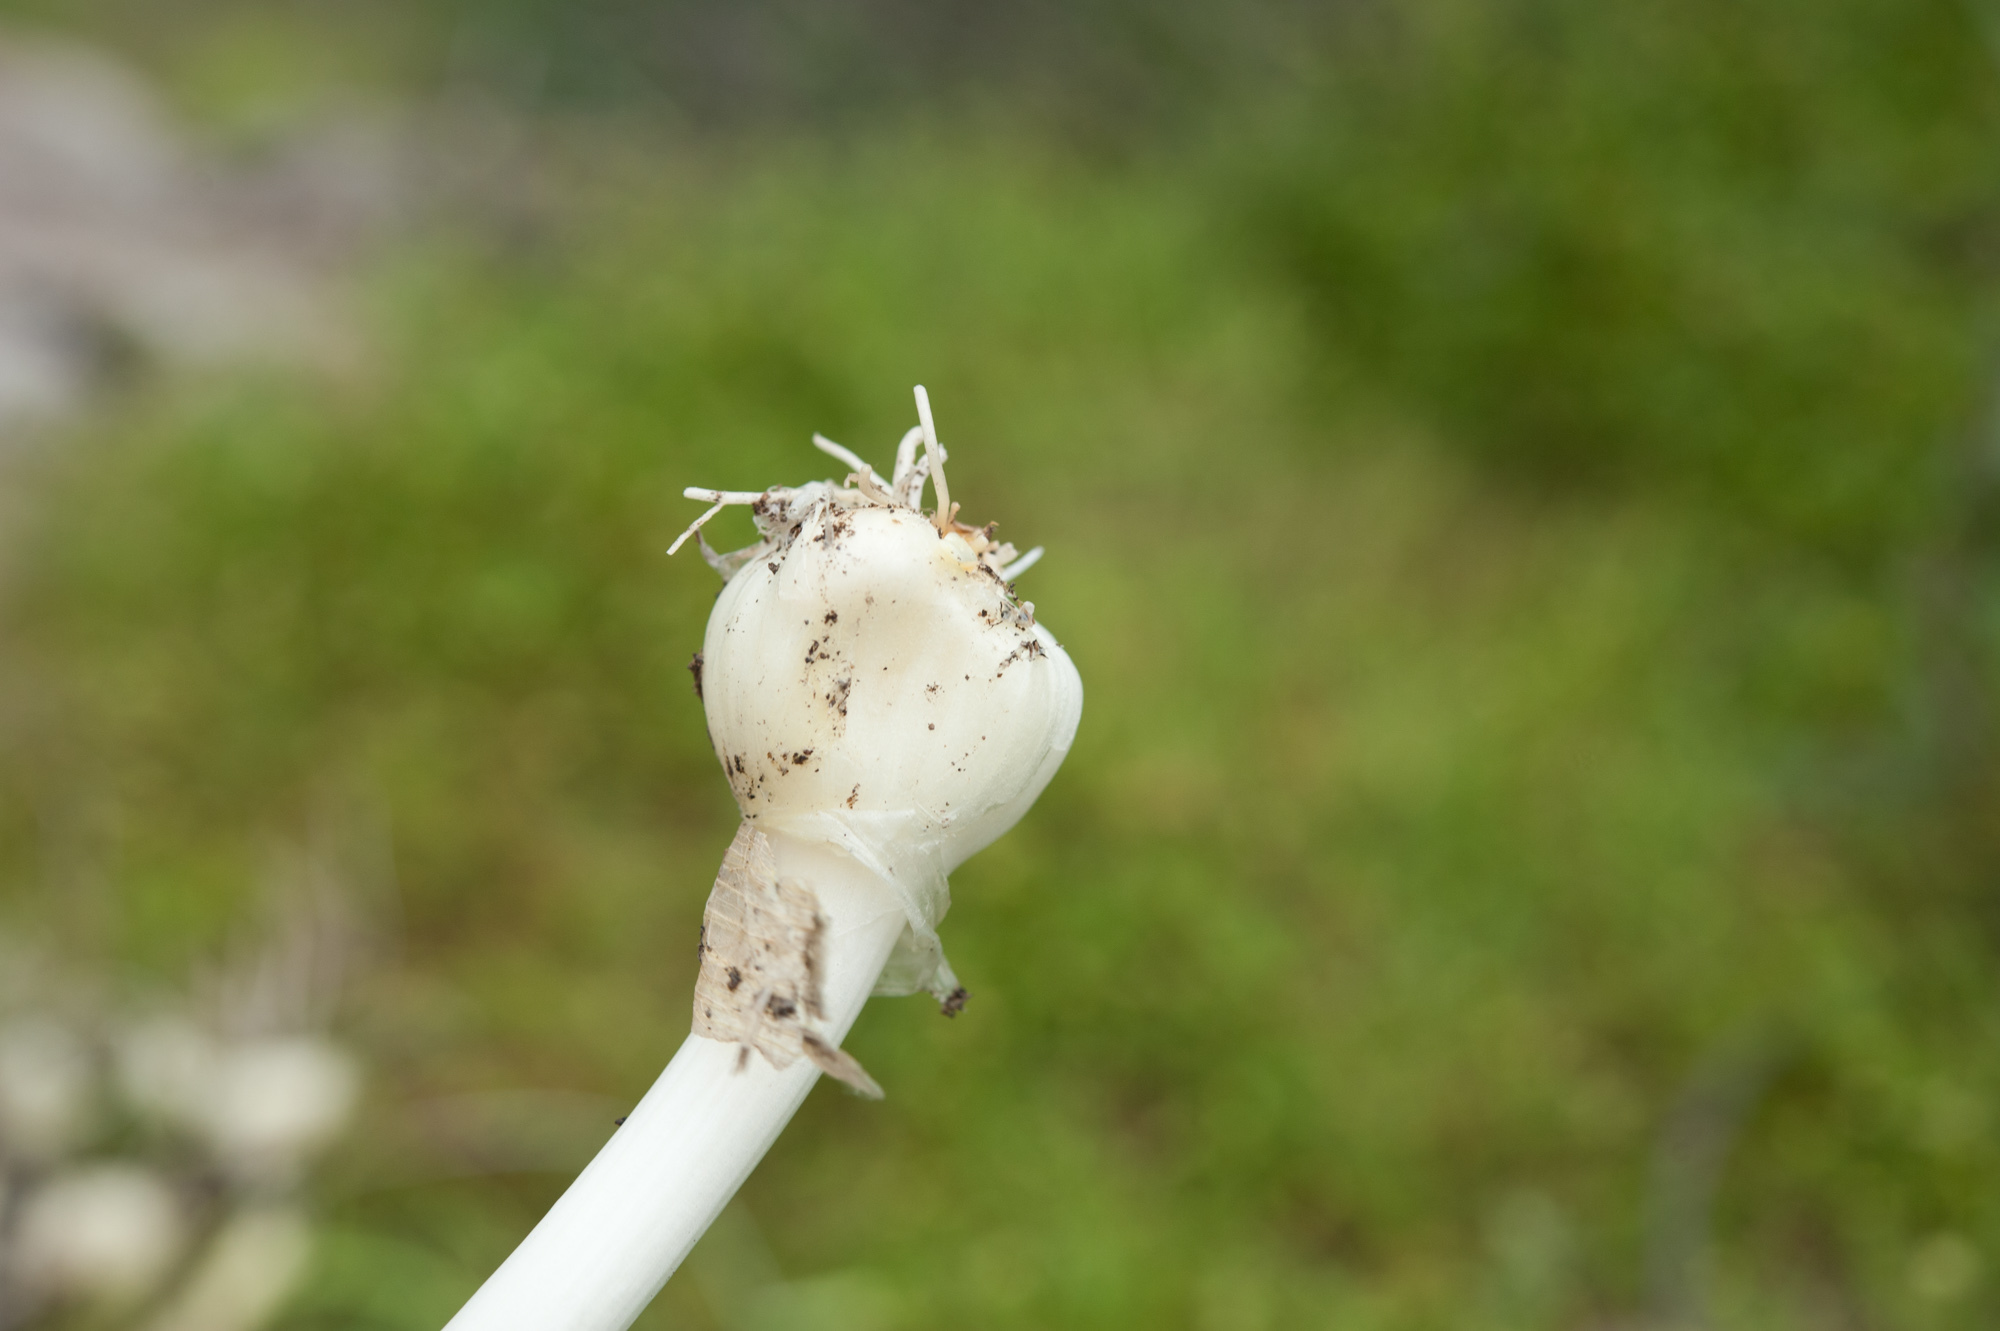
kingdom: Plantae
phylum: Tracheophyta
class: Liliopsida
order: Asparagales
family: Amaryllidaceae
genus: Allium
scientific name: Allium macrostemon
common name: Chinese garlic
